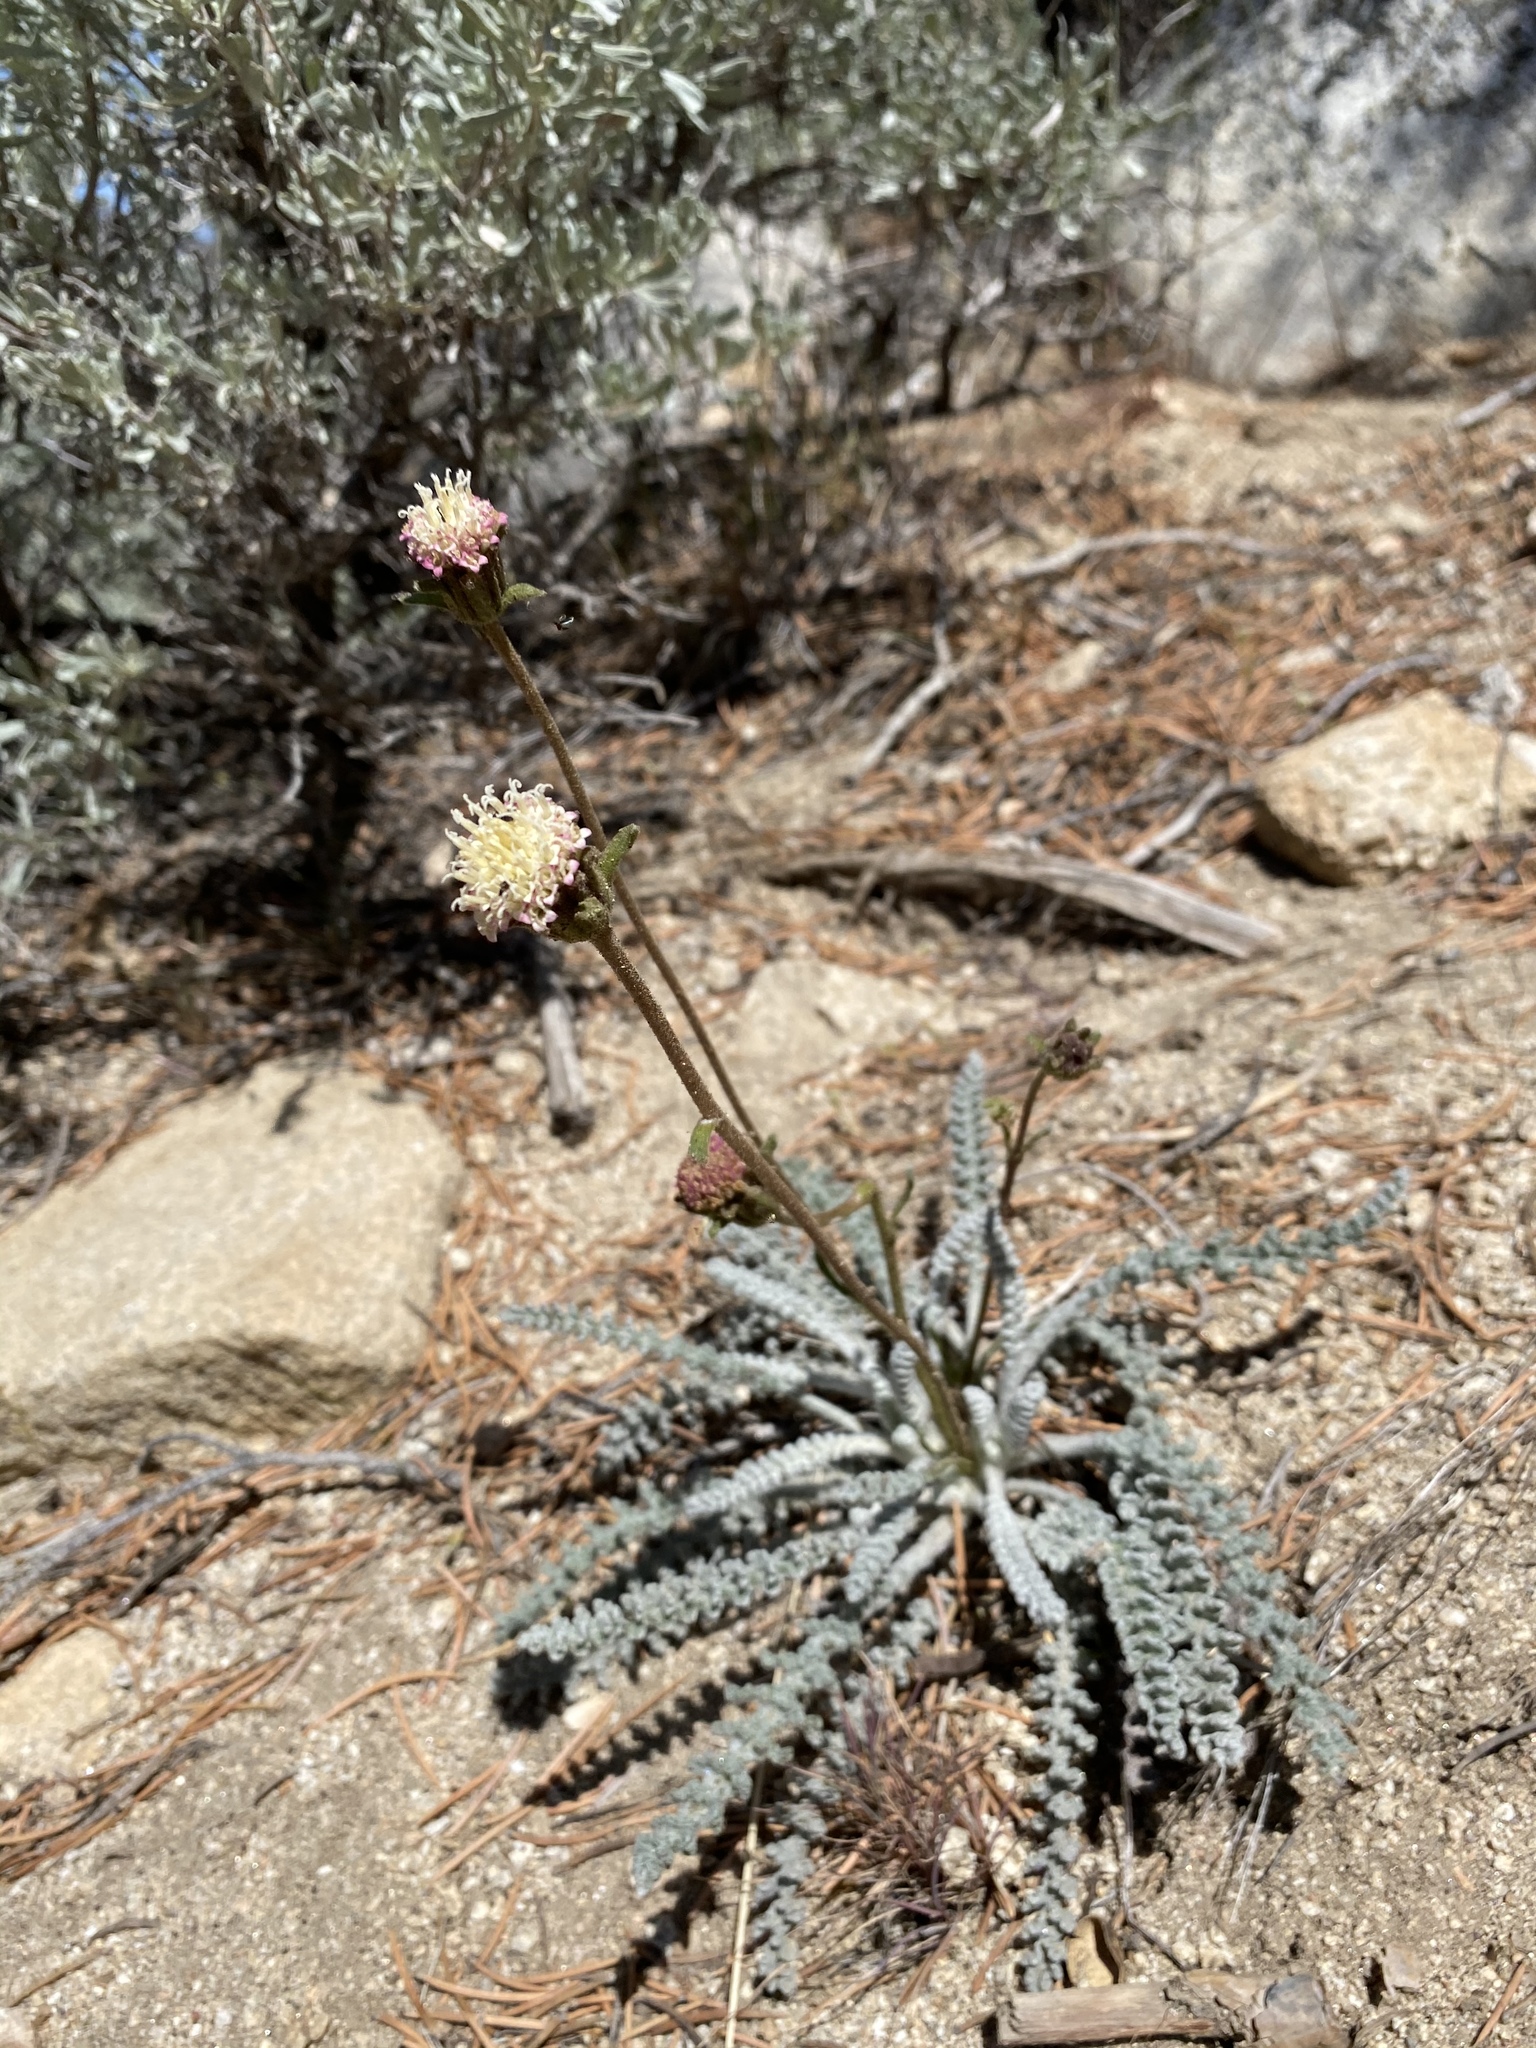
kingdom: Plantae
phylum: Tracheophyta
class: Magnoliopsida
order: Asterales
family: Asteraceae
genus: Chaenactis
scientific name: Chaenactis santolinoides
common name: Santolina pincushion
